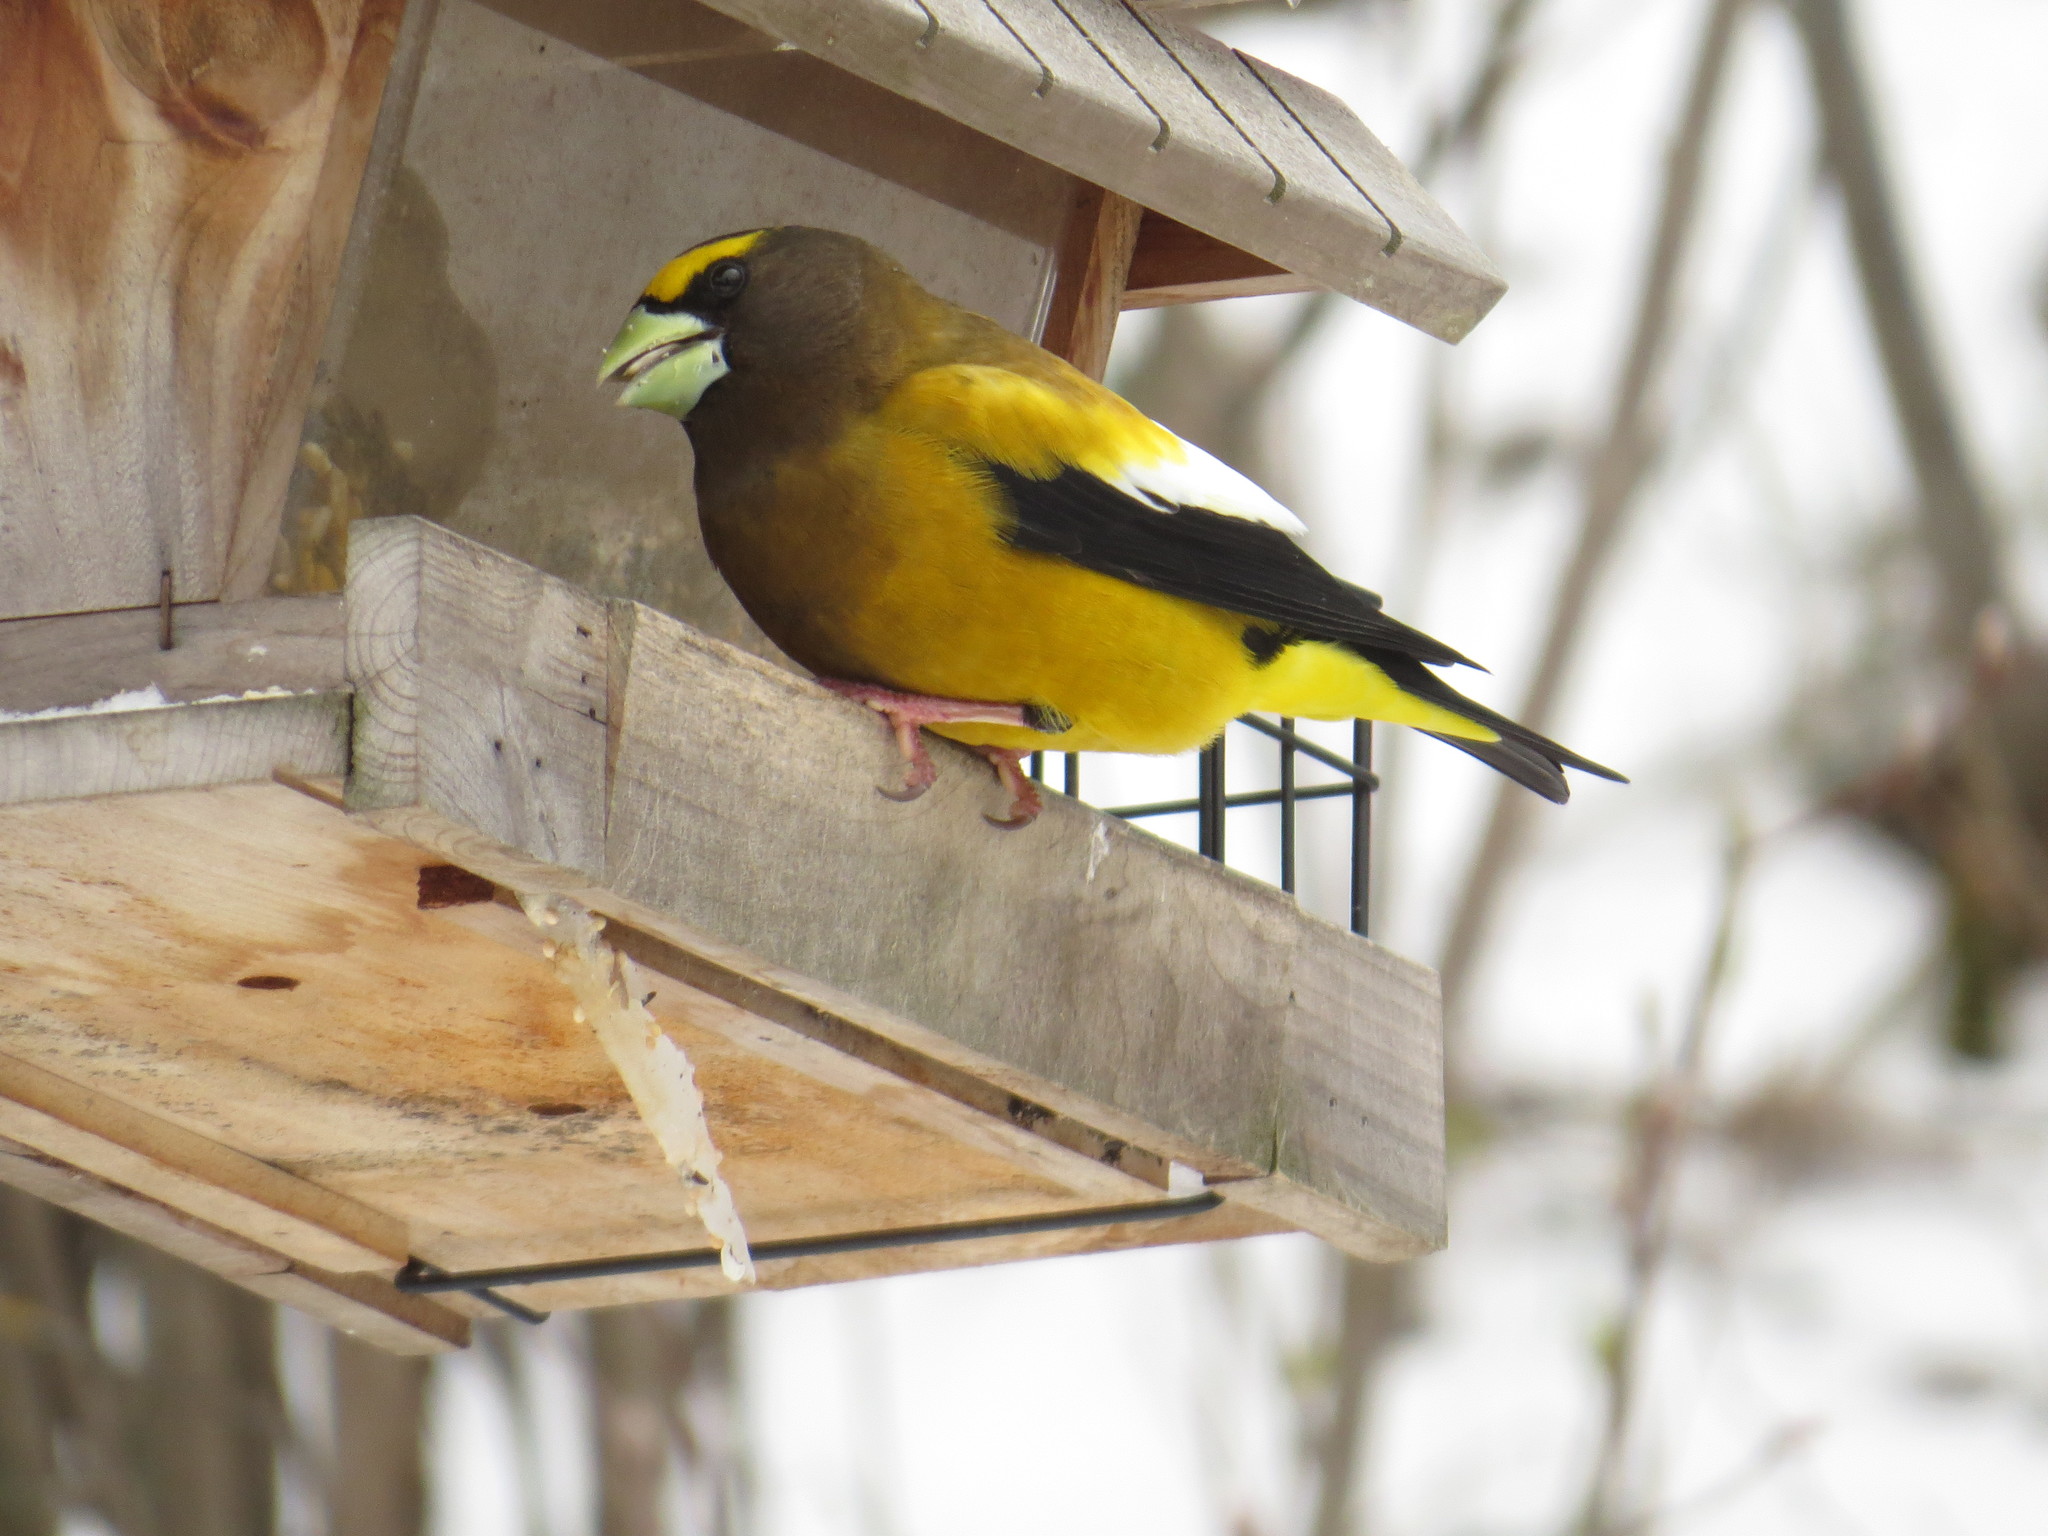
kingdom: Animalia
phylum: Chordata
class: Aves
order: Passeriformes
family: Fringillidae
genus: Hesperiphona
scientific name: Hesperiphona vespertina
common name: Evening grosbeak
